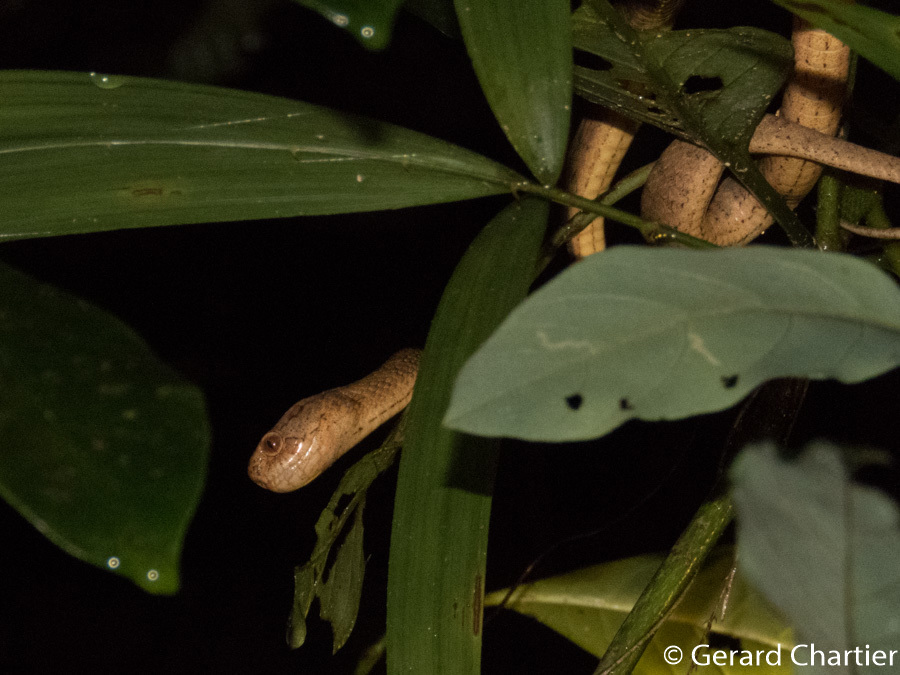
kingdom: Animalia
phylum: Chordata
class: Squamata
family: Pareidae
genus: Pareas
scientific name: Pareas carinatus
